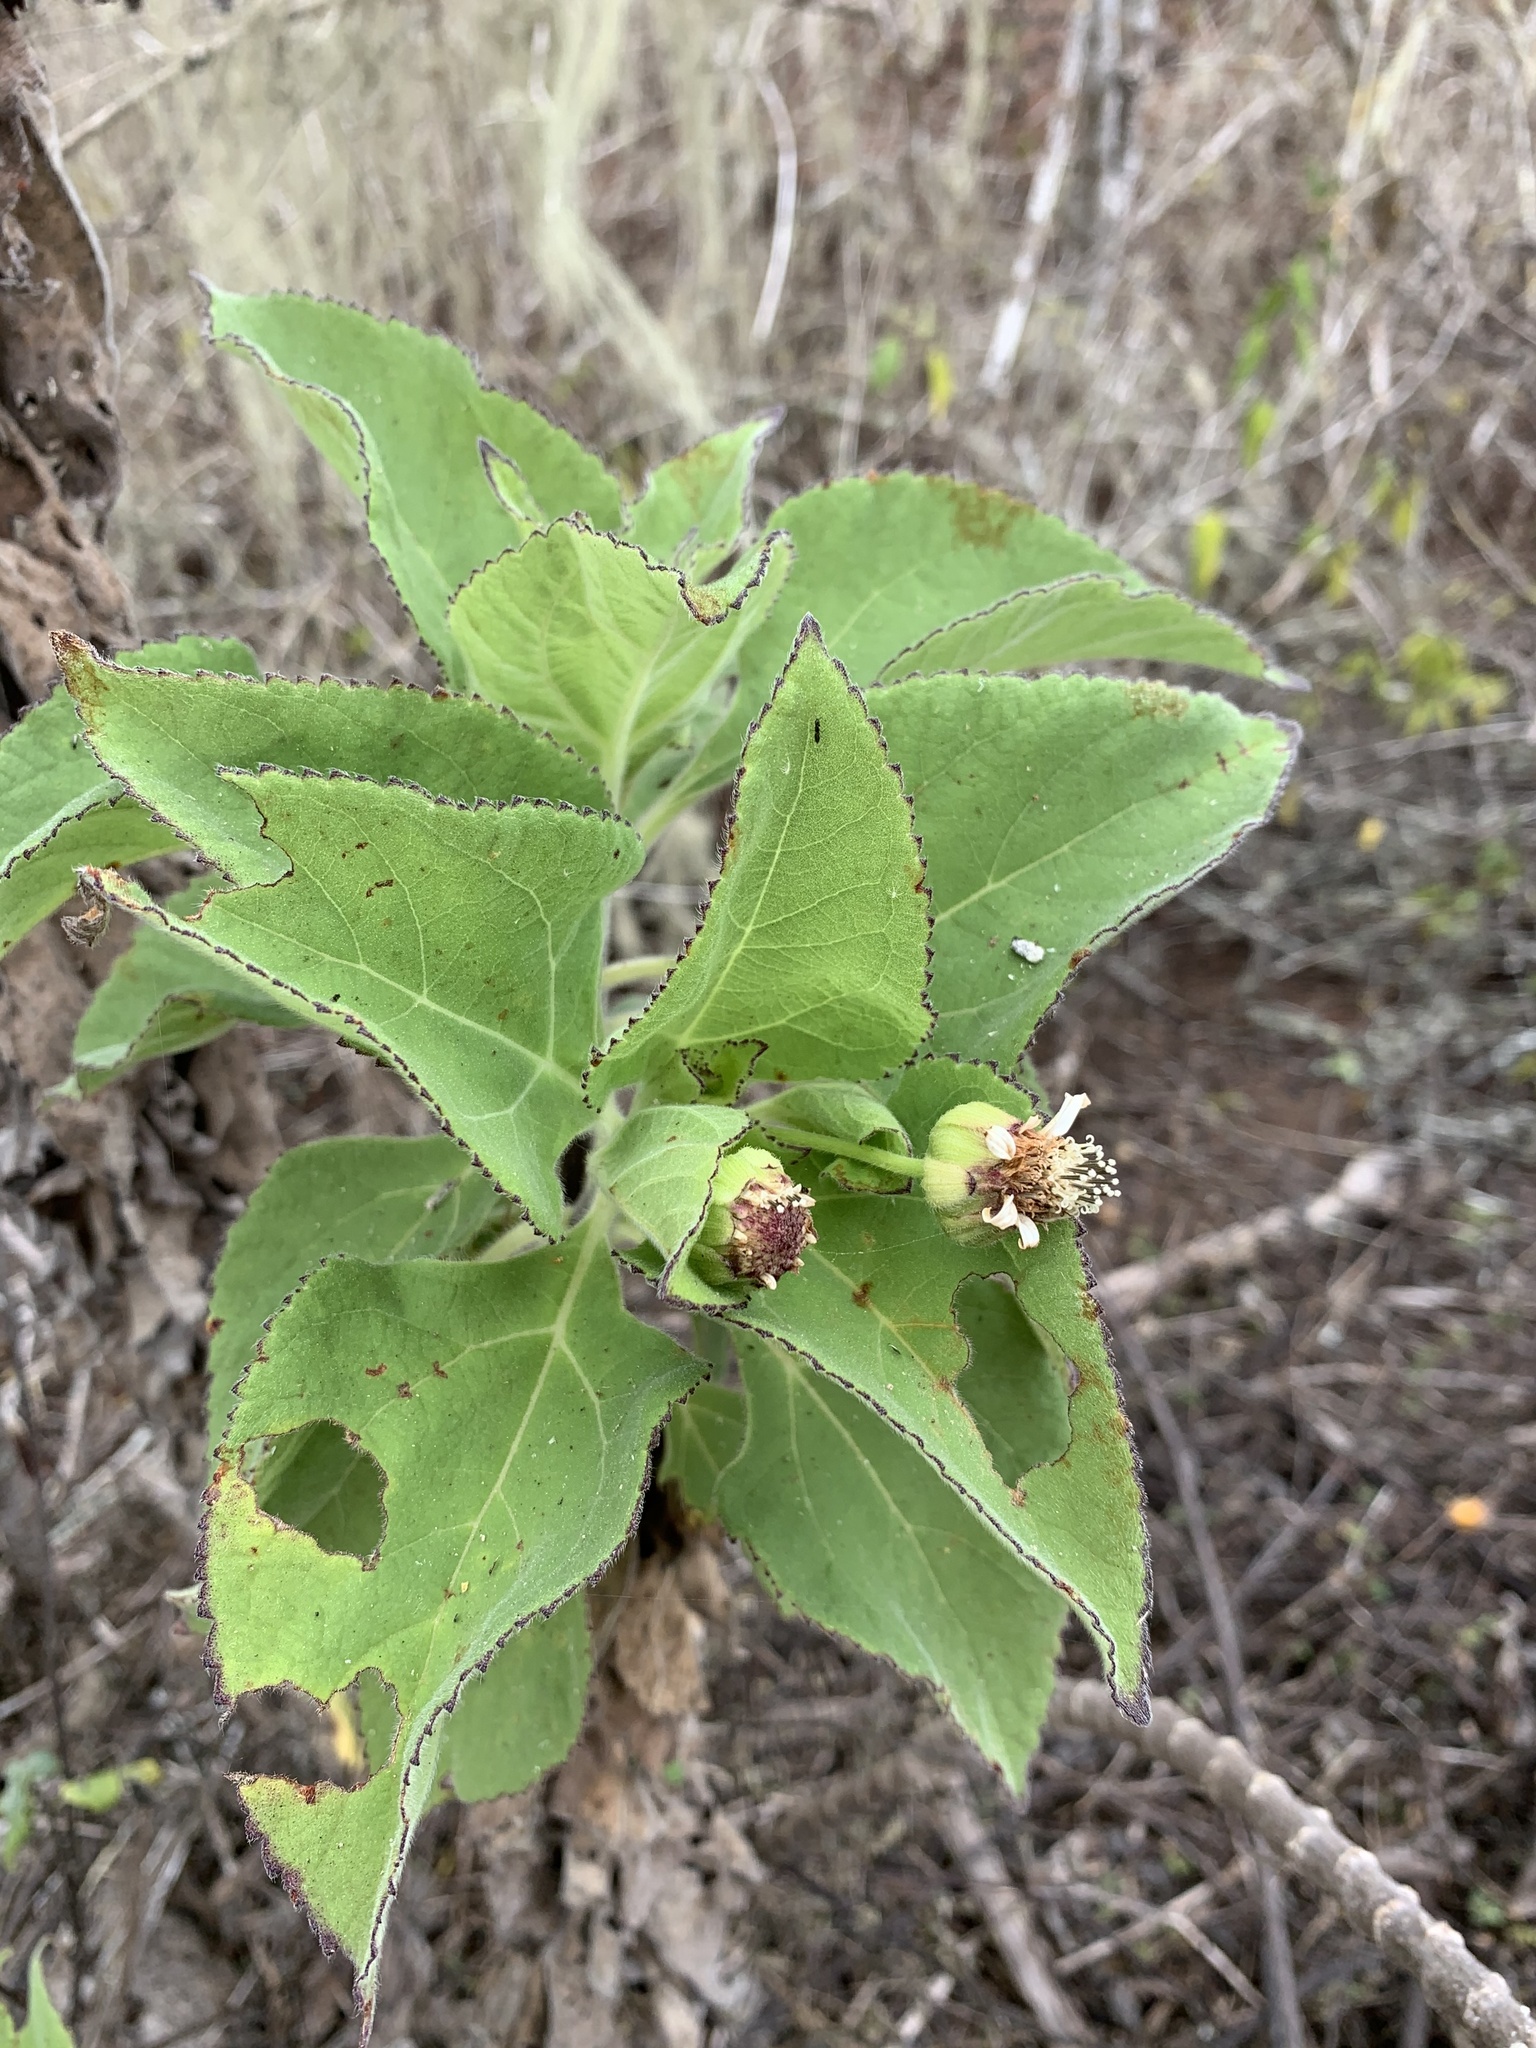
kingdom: Plantae
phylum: Tracheophyta
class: Magnoliopsida
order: Asterales
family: Asteraceae
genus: Scalesia
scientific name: Scalesia affinis
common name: Radiate-headed scalesia
